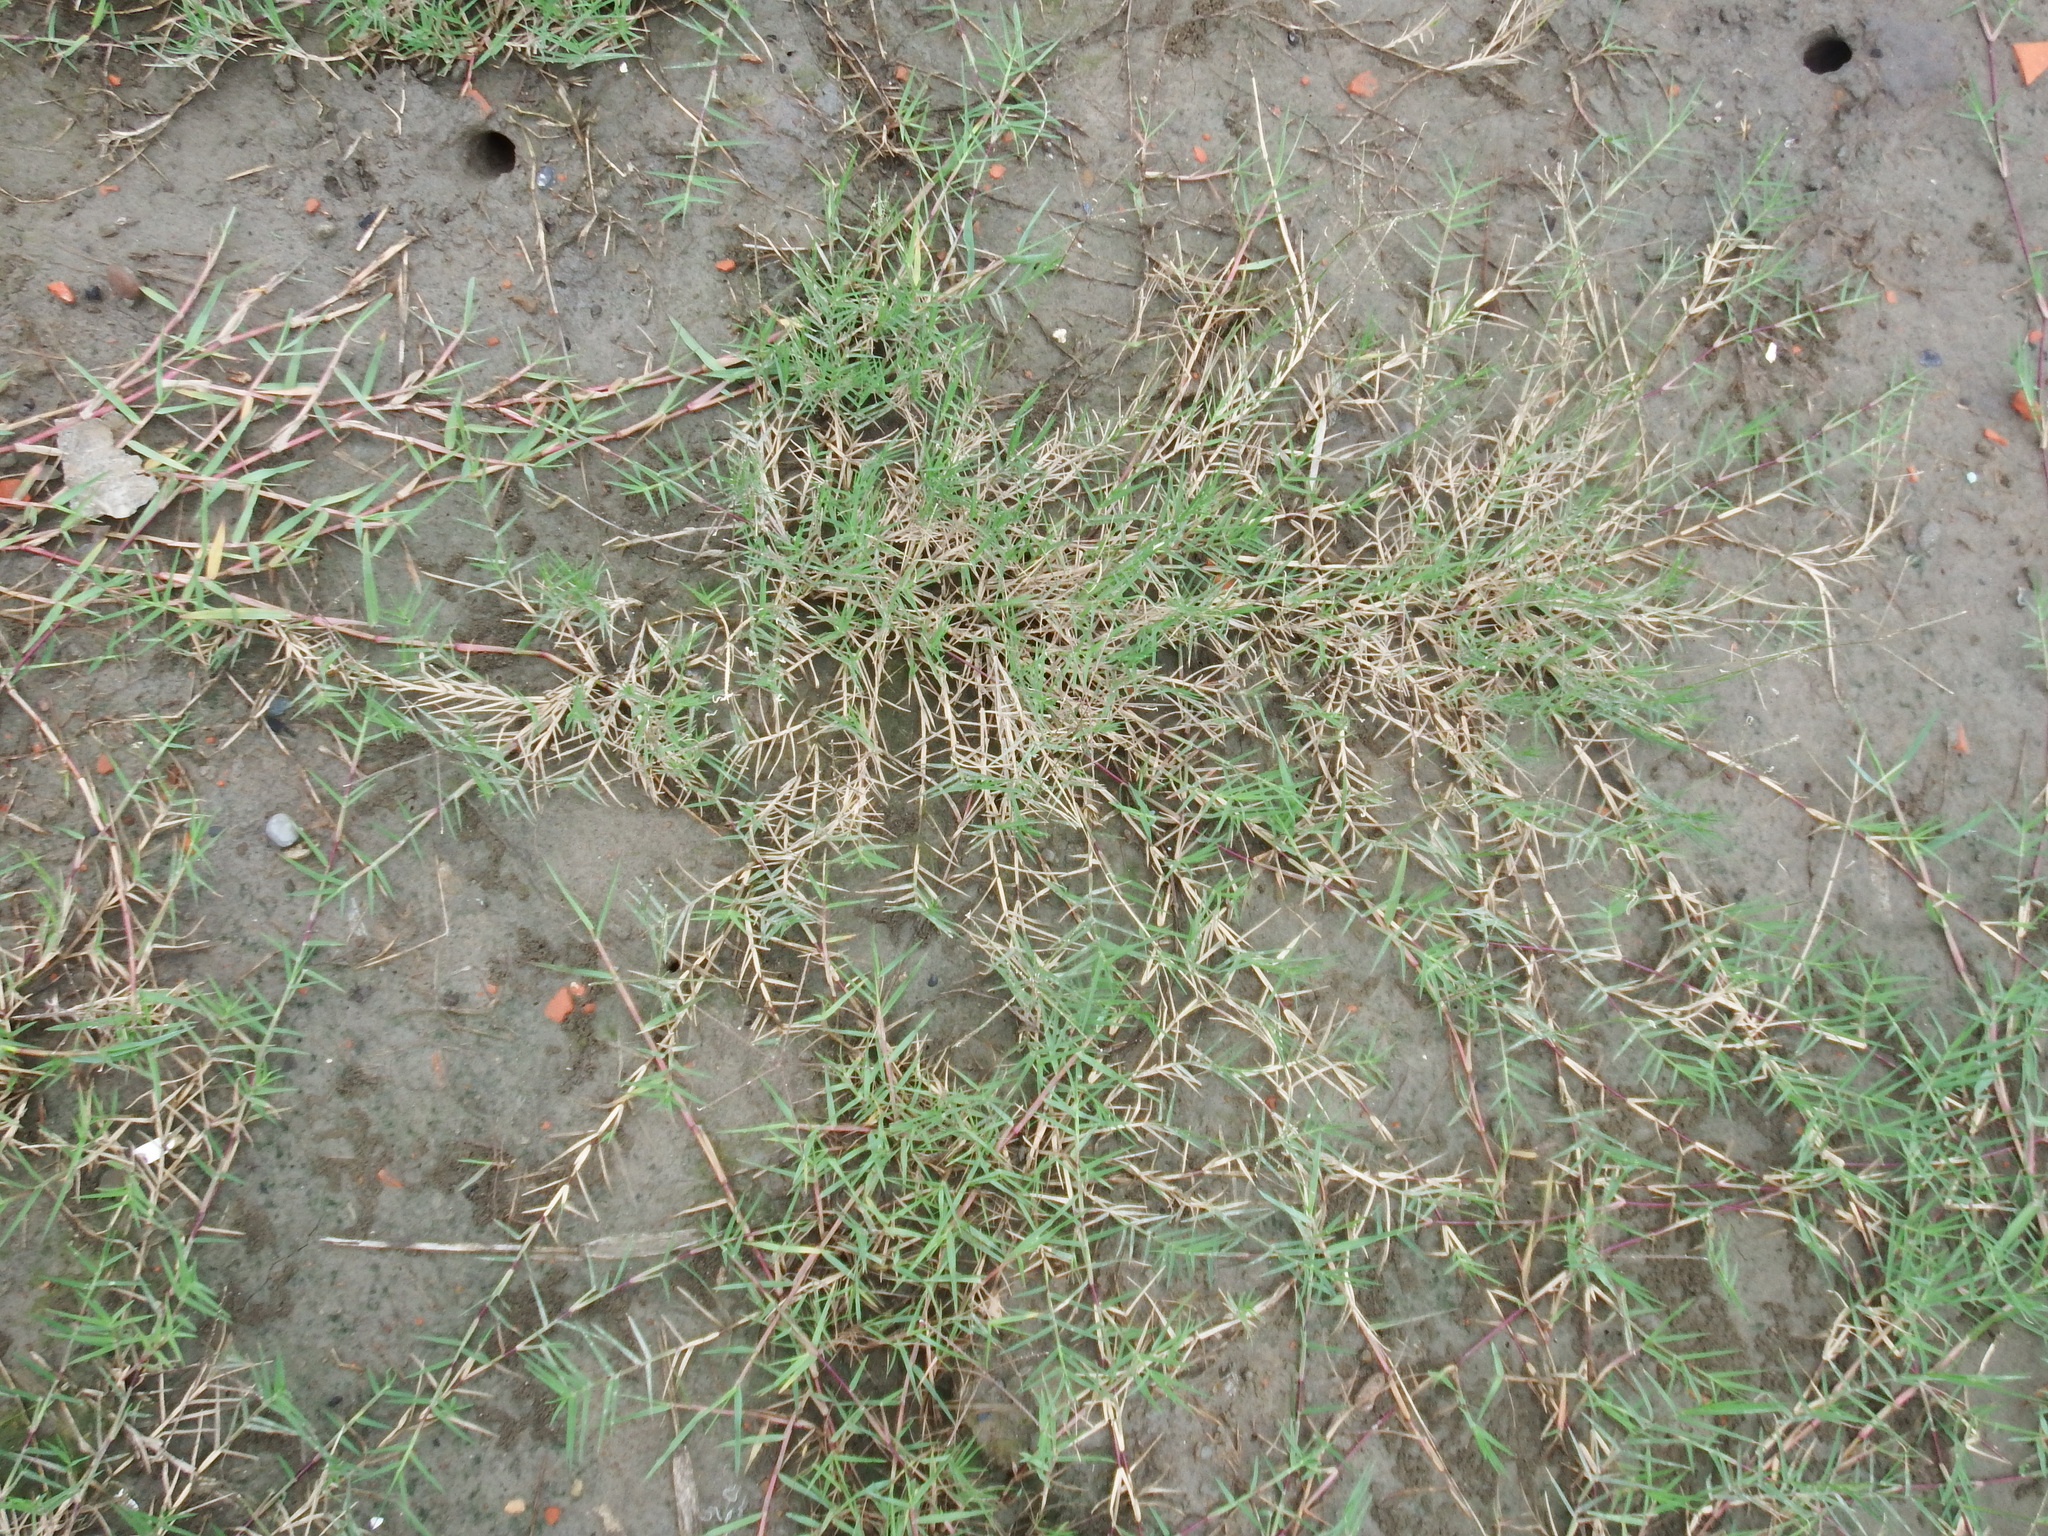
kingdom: Plantae
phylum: Tracheophyta
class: Liliopsida
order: Poales
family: Poaceae
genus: Cynodon
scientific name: Cynodon dactylon
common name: Bermuda grass
